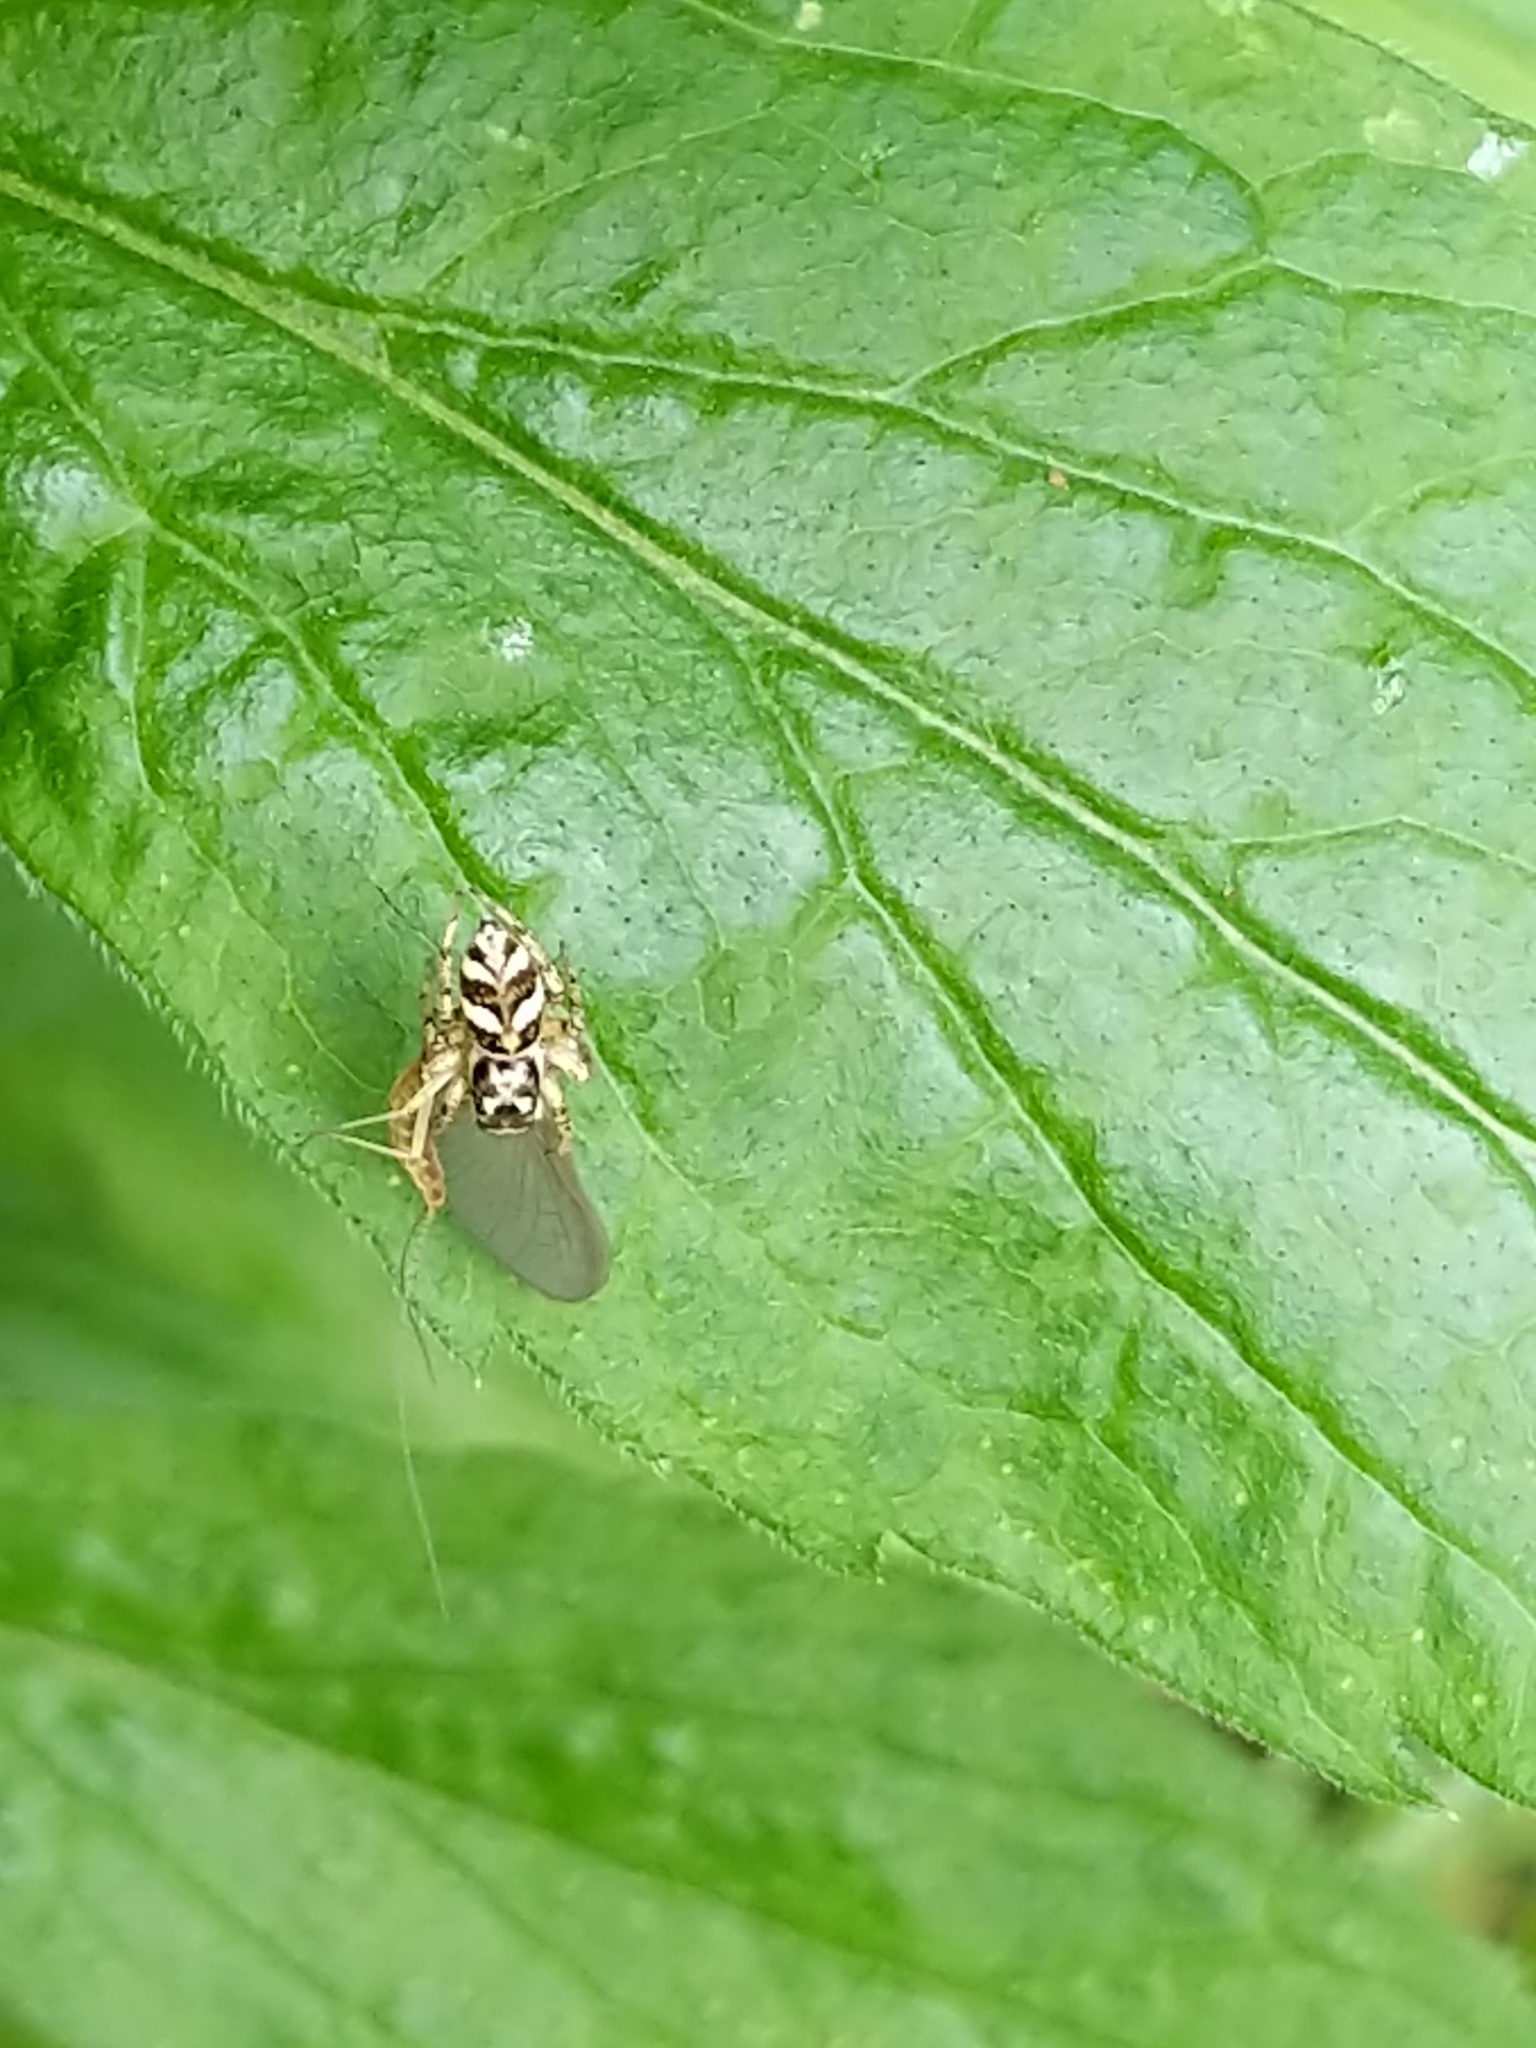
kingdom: Animalia
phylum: Arthropoda
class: Arachnida
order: Araneae
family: Salticidae
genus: Salticus
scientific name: Salticus scenicus
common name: Zebra jumper
